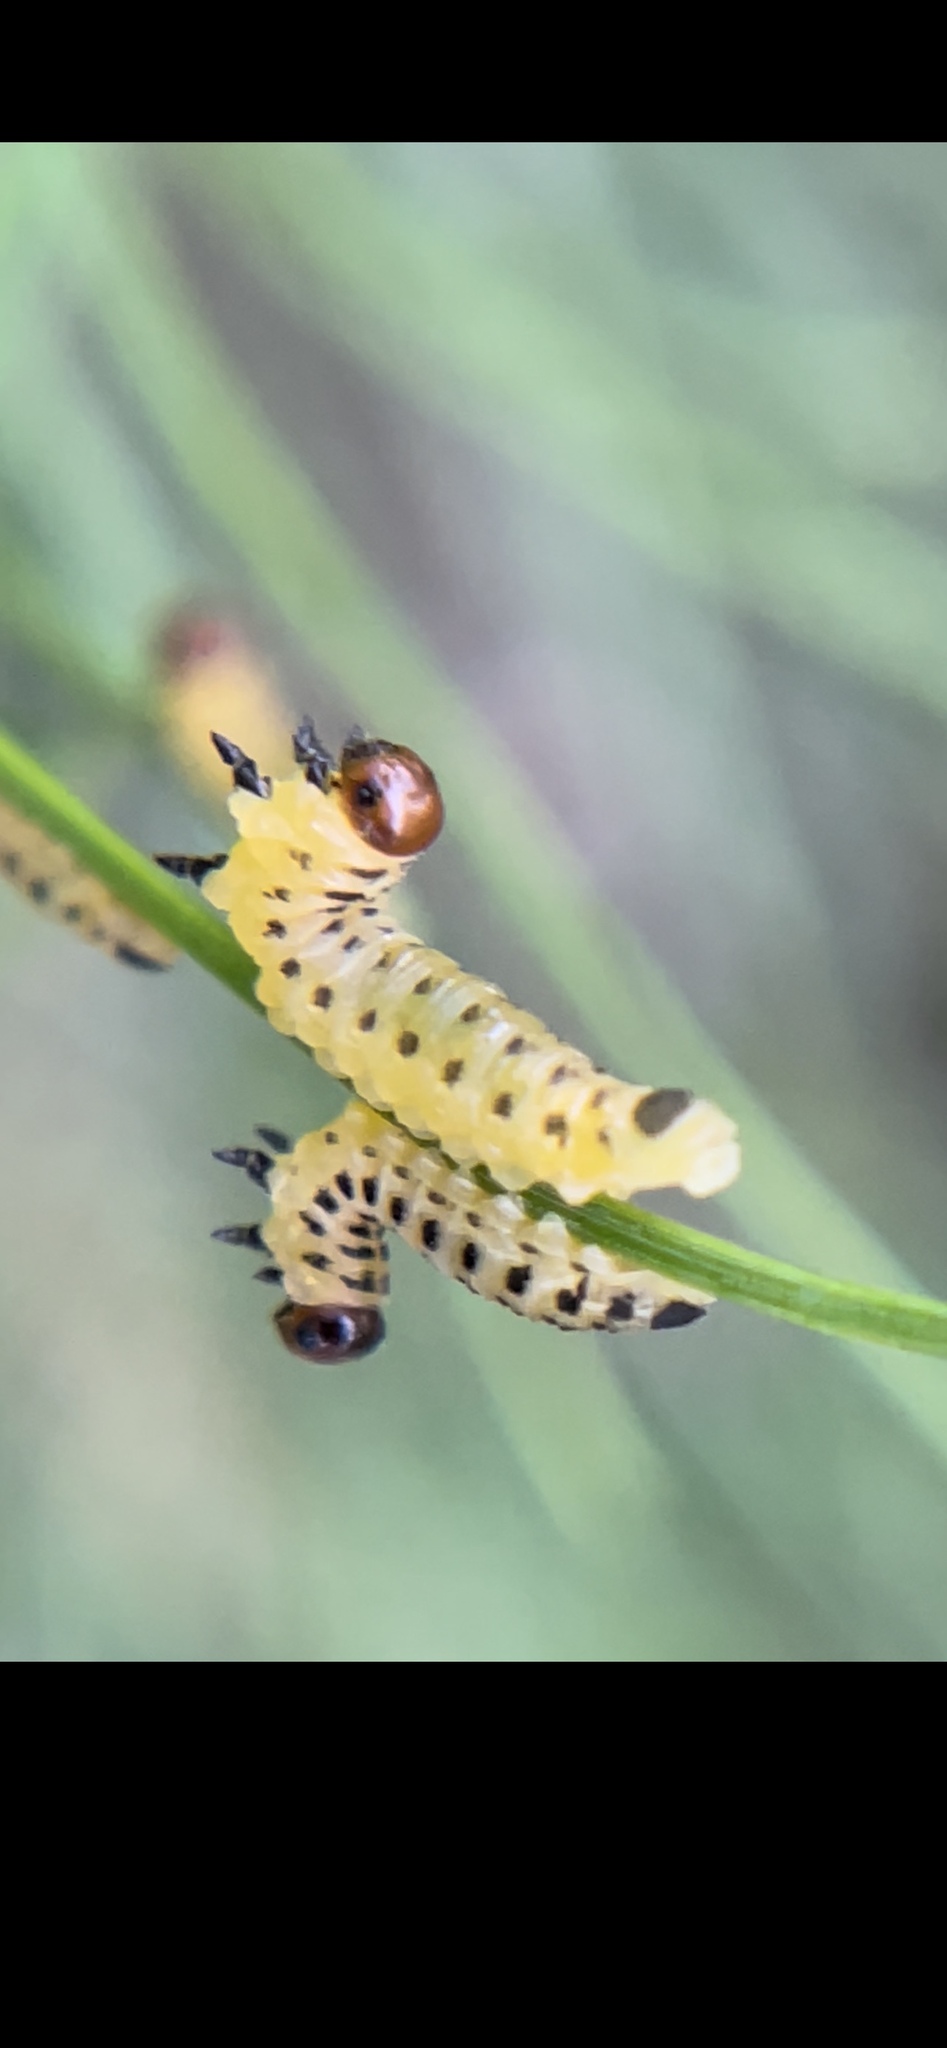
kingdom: Animalia
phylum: Arthropoda
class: Insecta
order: Hymenoptera
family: Diprionidae
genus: Neodiprion
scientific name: Neodiprion lecontei
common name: Redheaded pine sawfly
